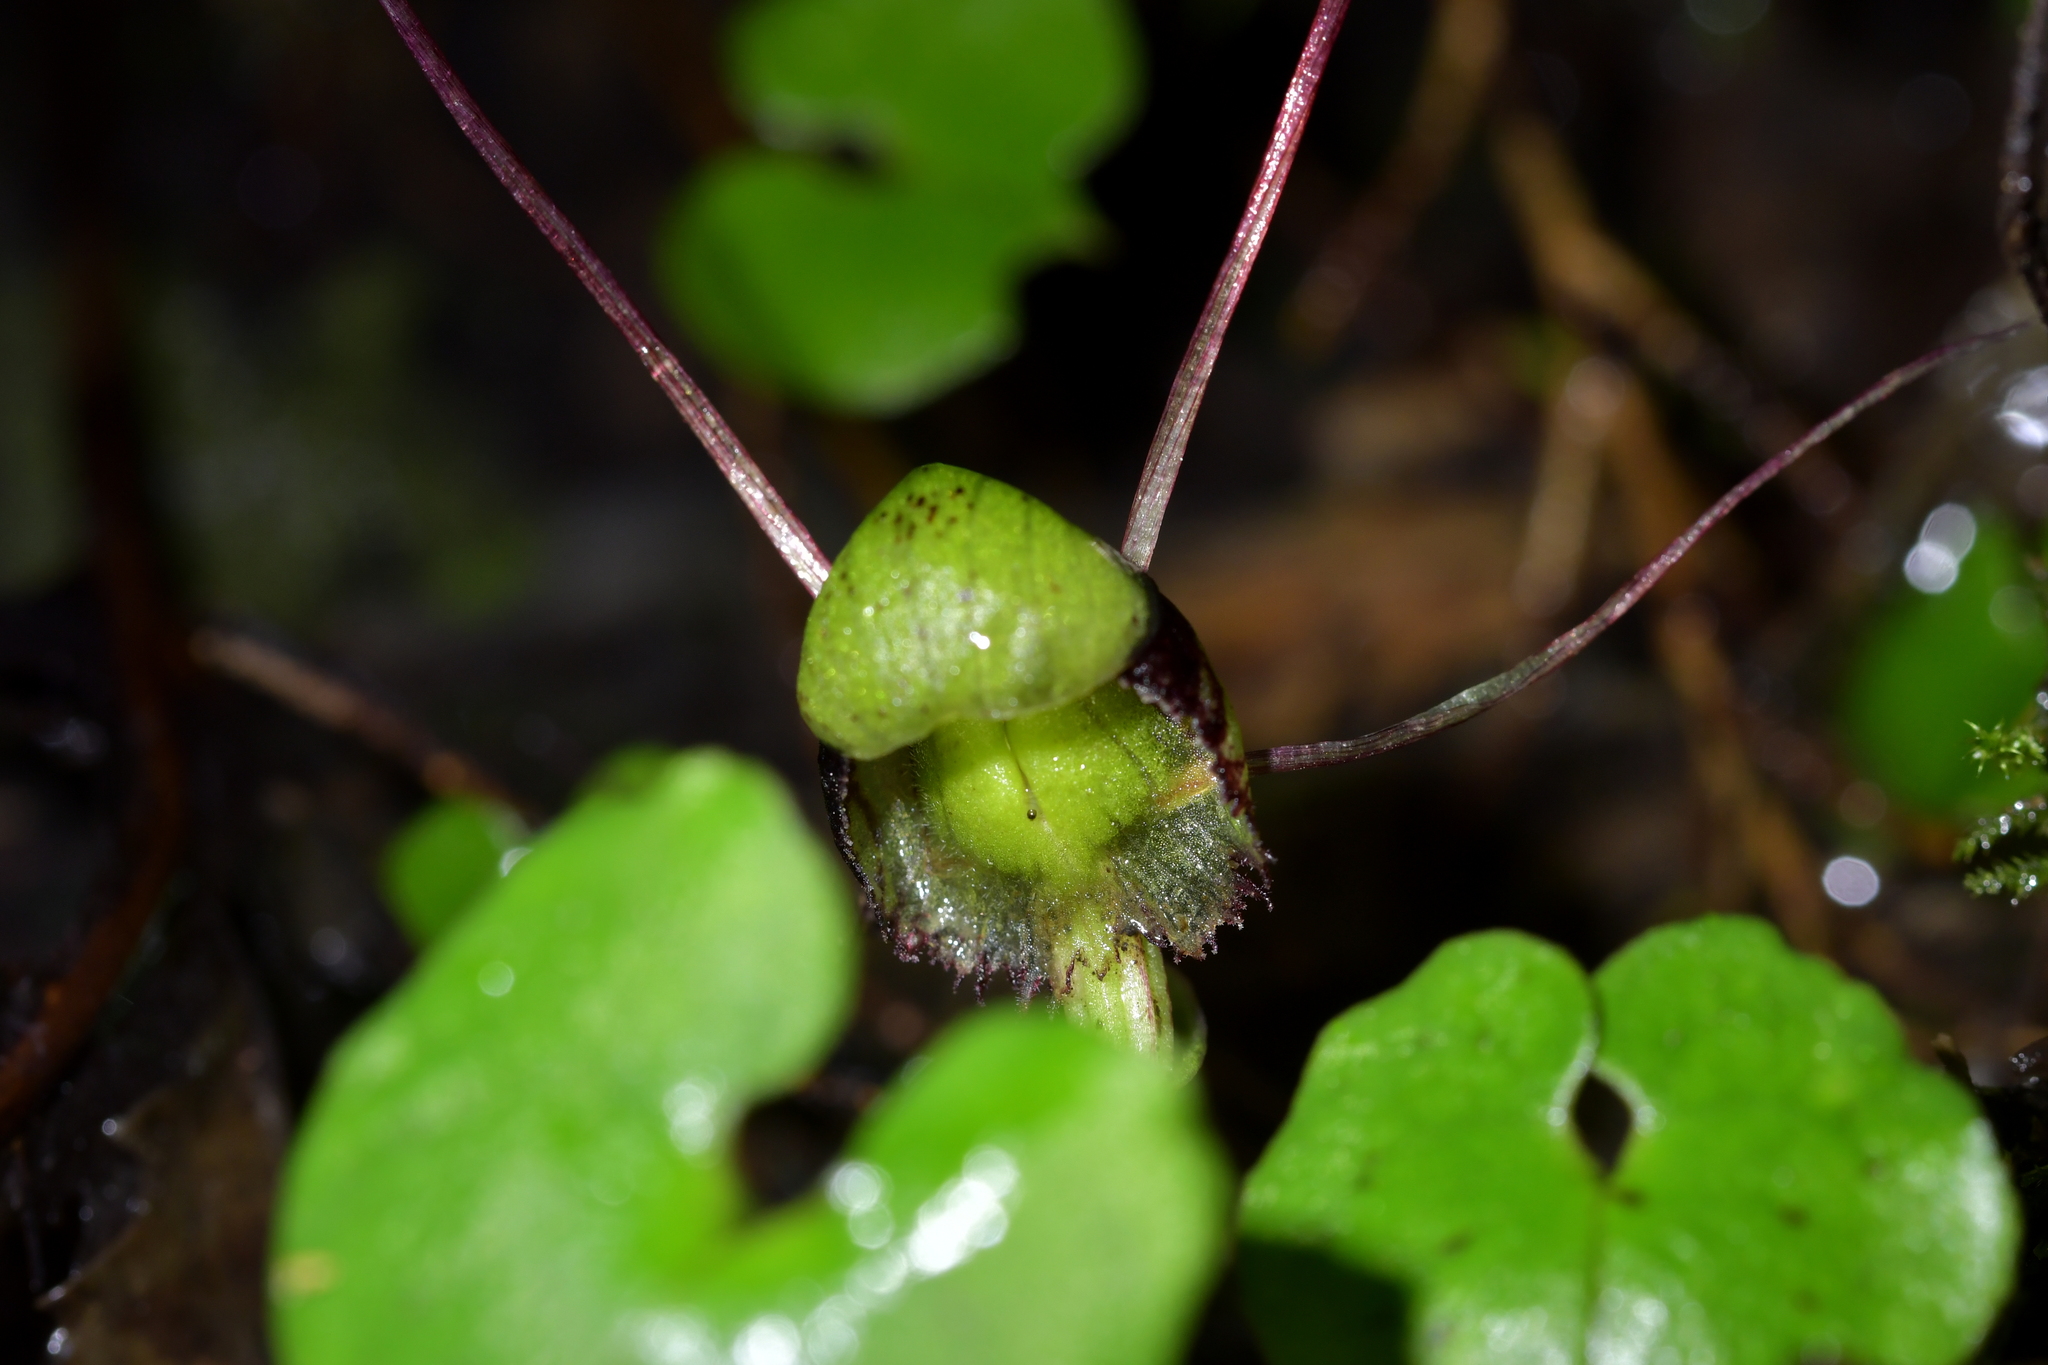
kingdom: Plantae
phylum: Tracheophyta
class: Liliopsida
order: Asparagales
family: Orchidaceae
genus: Corybas
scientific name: Corybas vitreus
